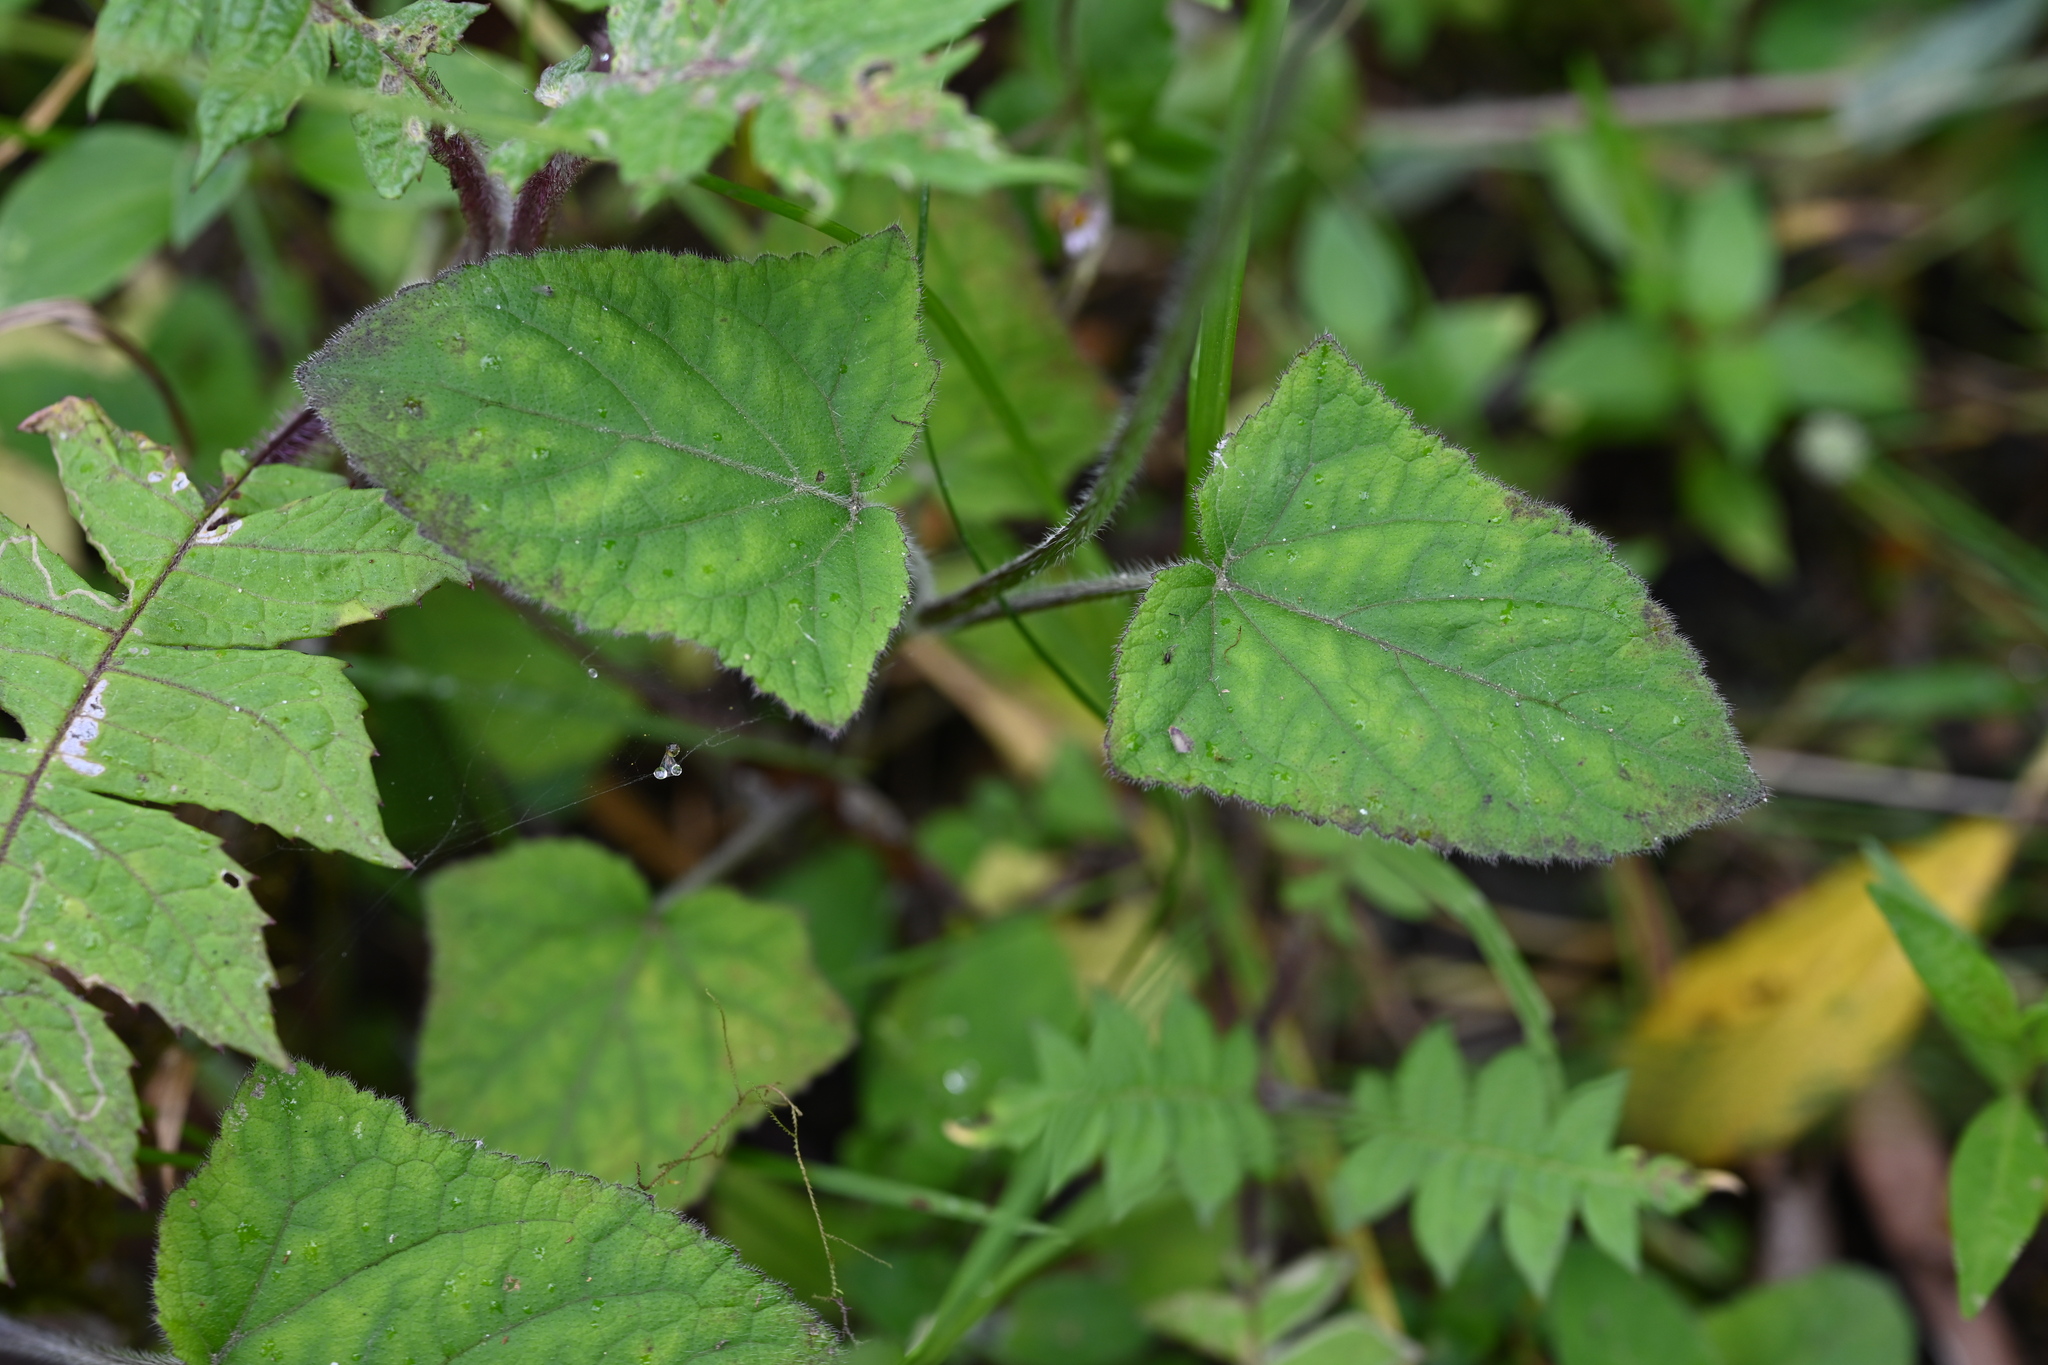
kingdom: Plantae
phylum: Tracheophyta
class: Magnoliopsida
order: Lamiales
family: Lamiaceae
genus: Salvia
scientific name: Salvia scutellarioides
